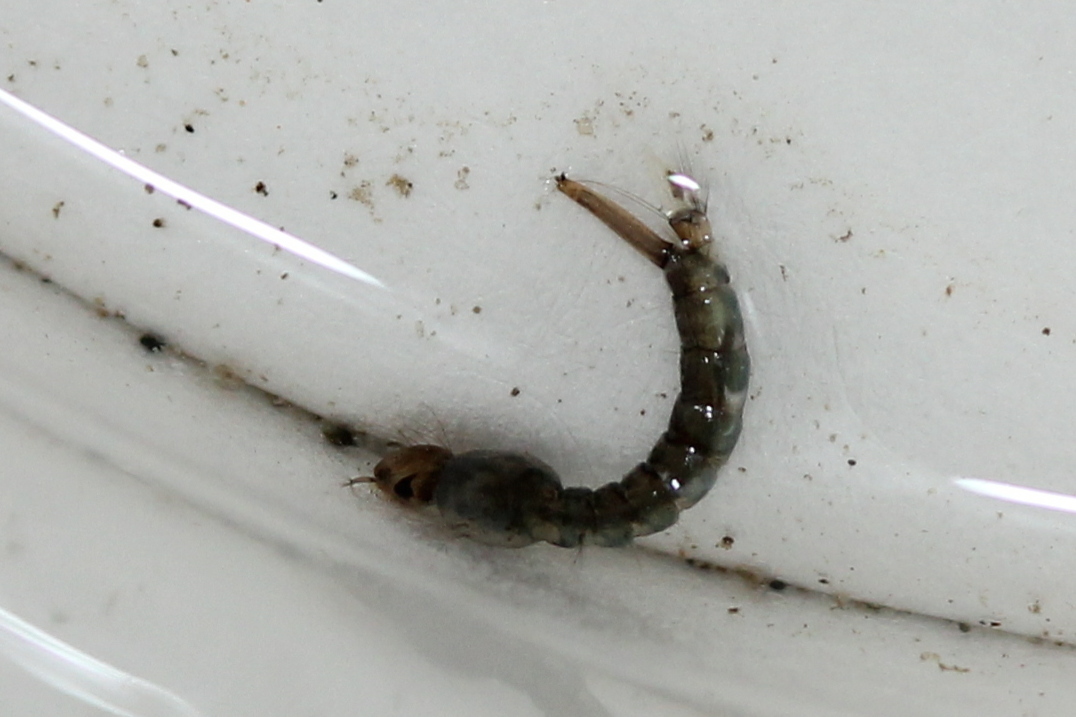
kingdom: Animalia
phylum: Arthropoda
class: Insecta
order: Diptera
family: Culicidae
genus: Culex
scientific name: Culex pipiens
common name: Mosquito
